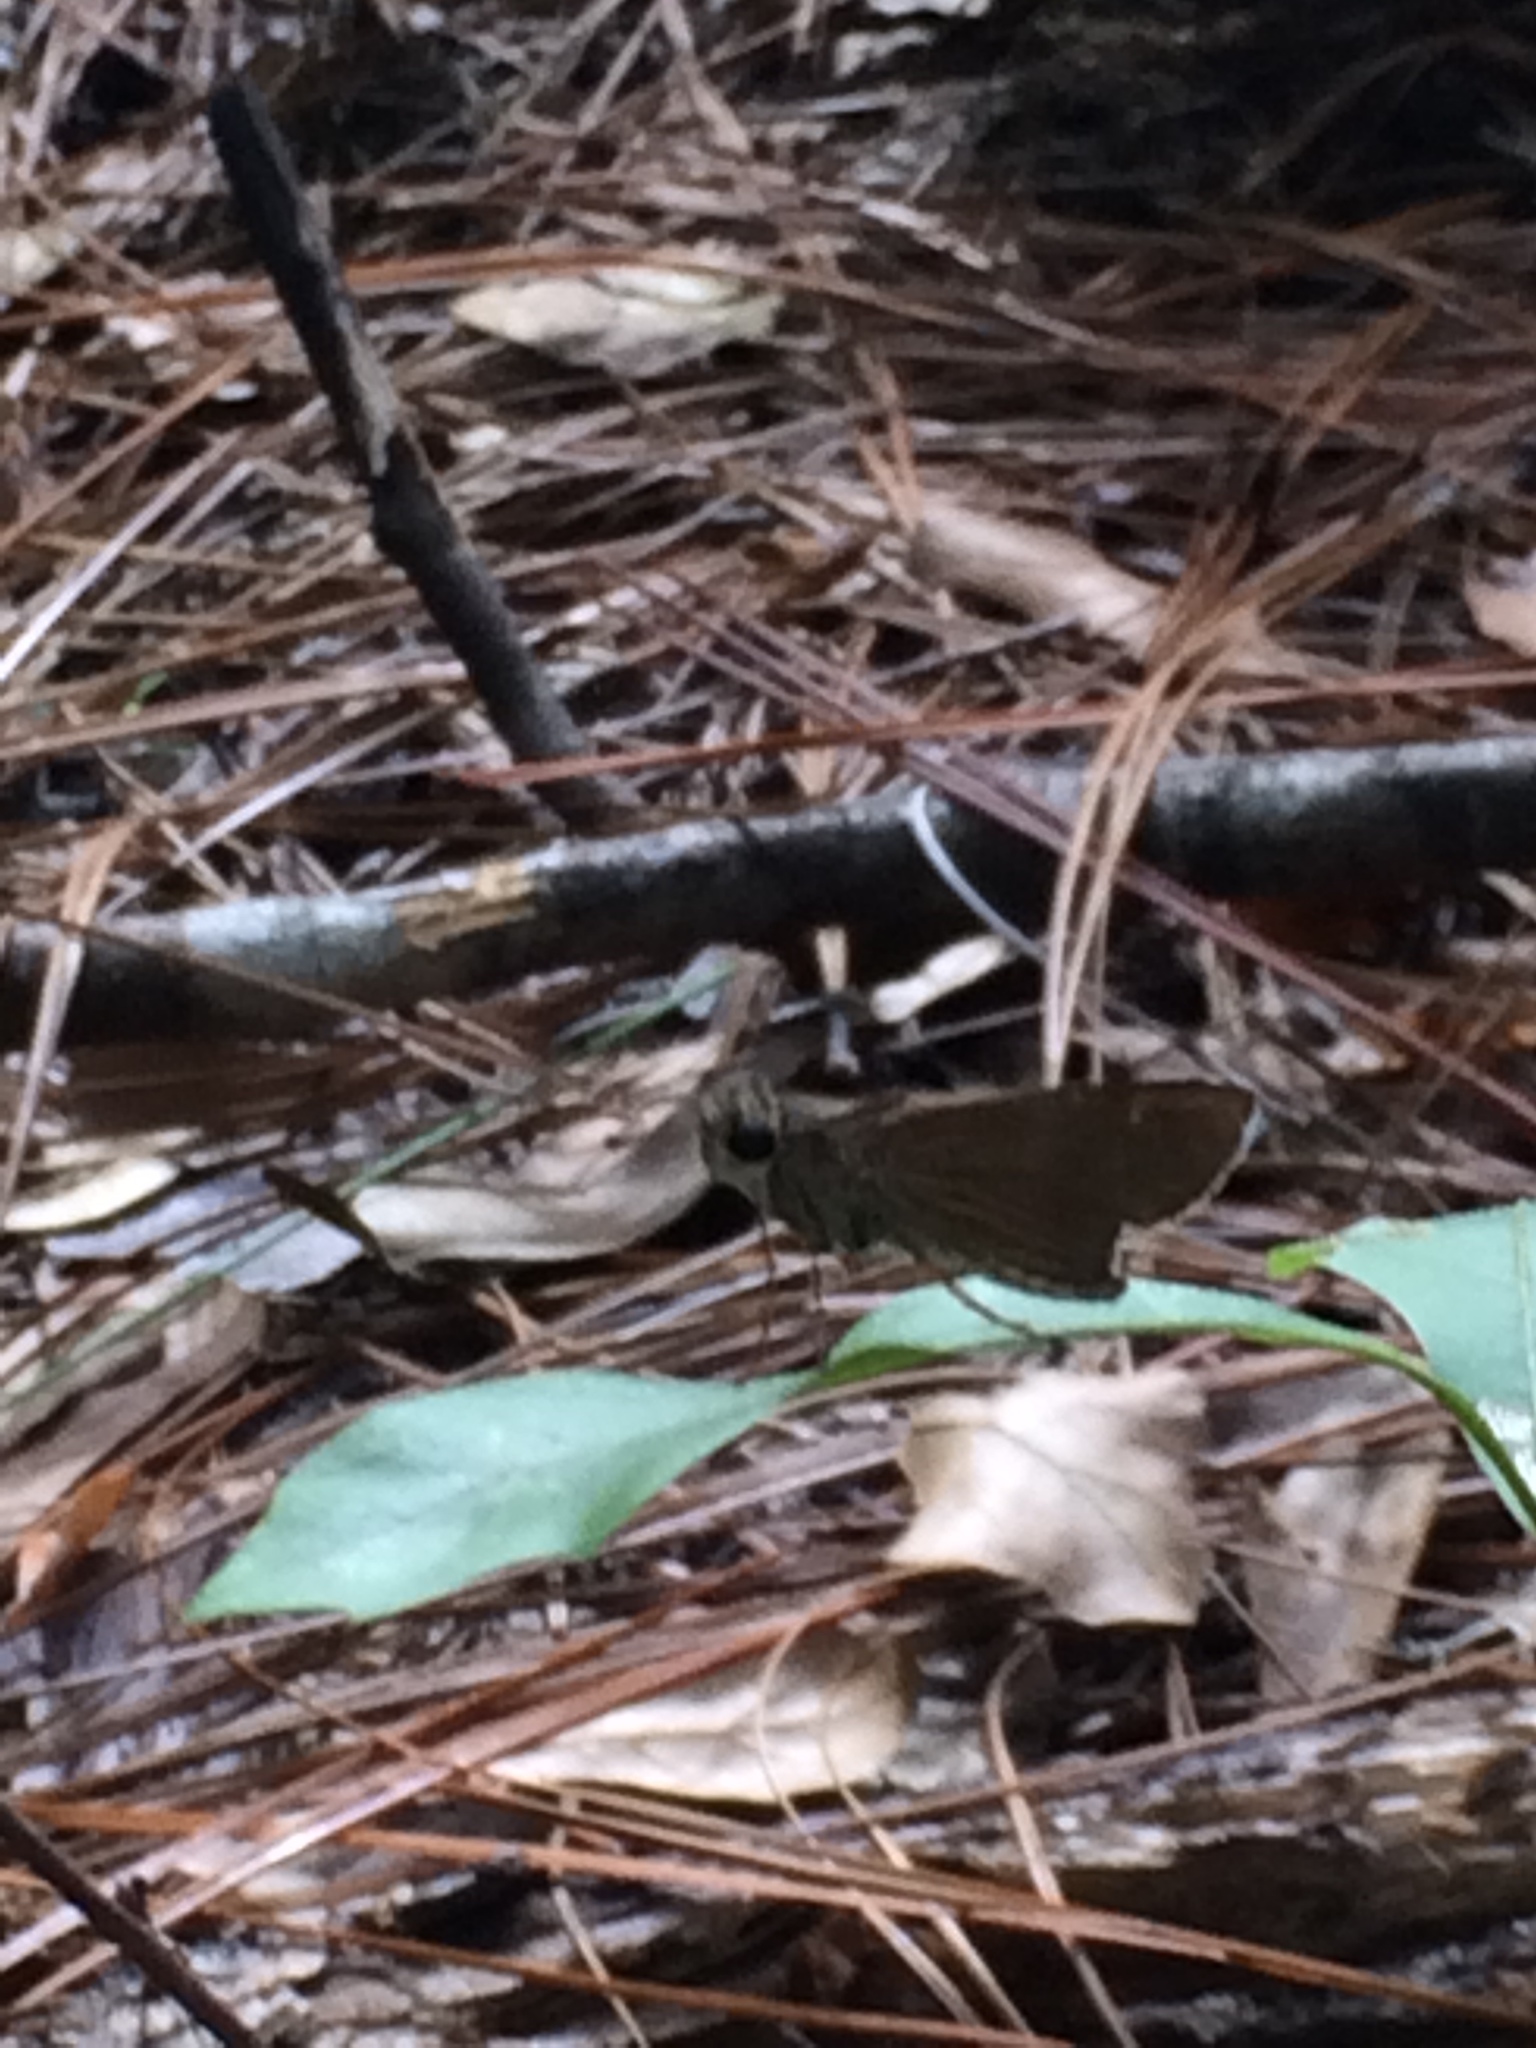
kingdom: Animalia
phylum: Arthropoda
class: Insecta
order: Lepidoptera
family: Hesperiidae
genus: Panoquina
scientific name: Panoquina ocola
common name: Ocola skipper
